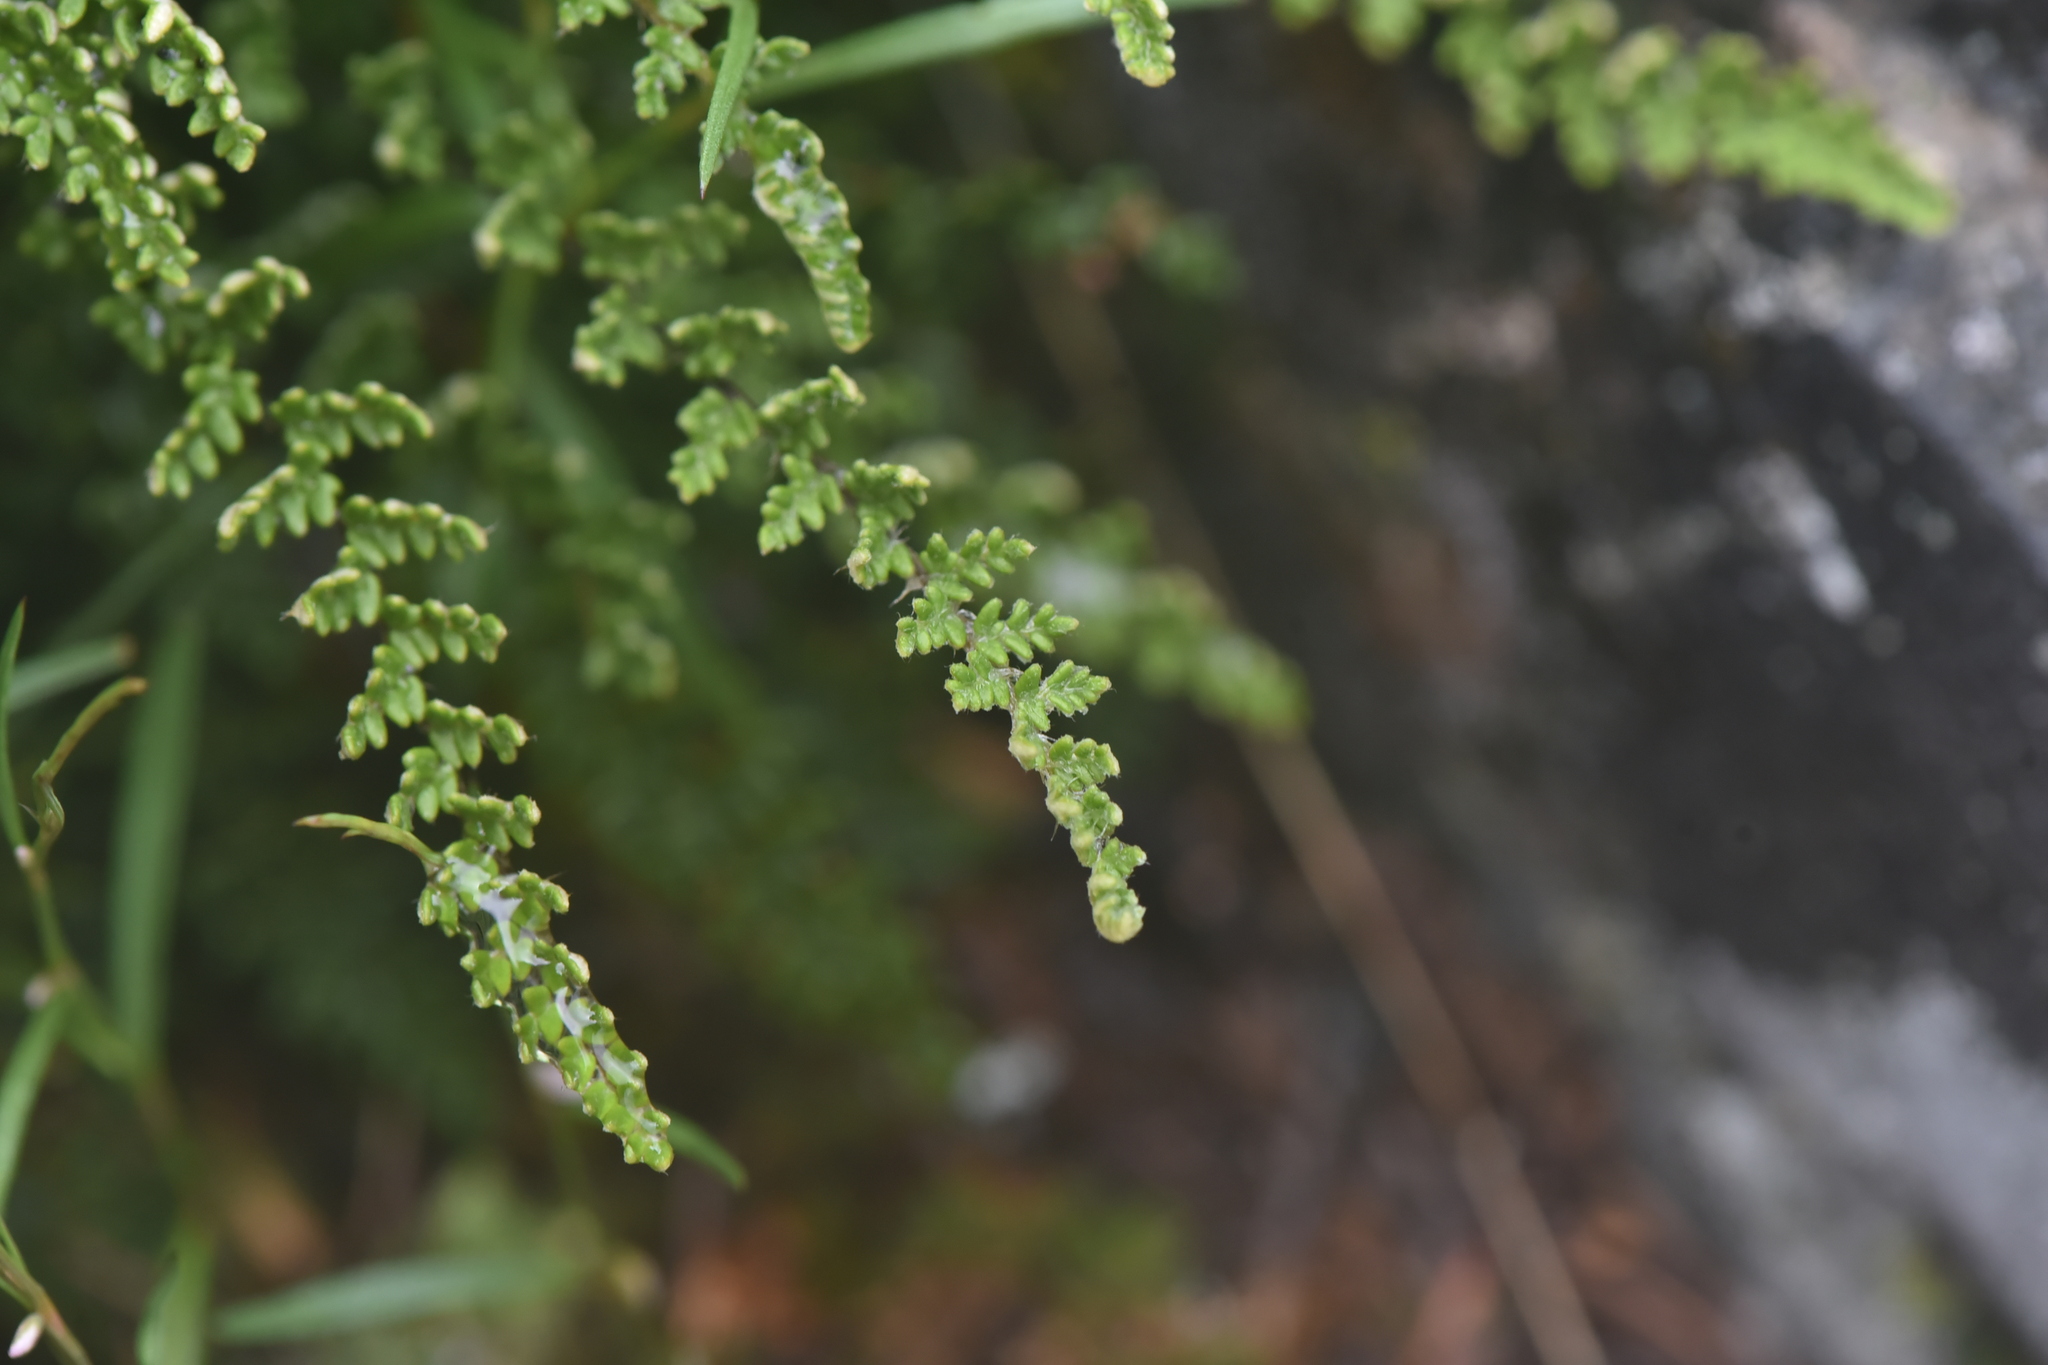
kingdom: Plantae
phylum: Tracheophyta
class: Polypodiopsida
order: Polypodiales
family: Pteridaceae
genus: Myriopteris
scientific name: Myriopteris gracillima
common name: Lace fern
